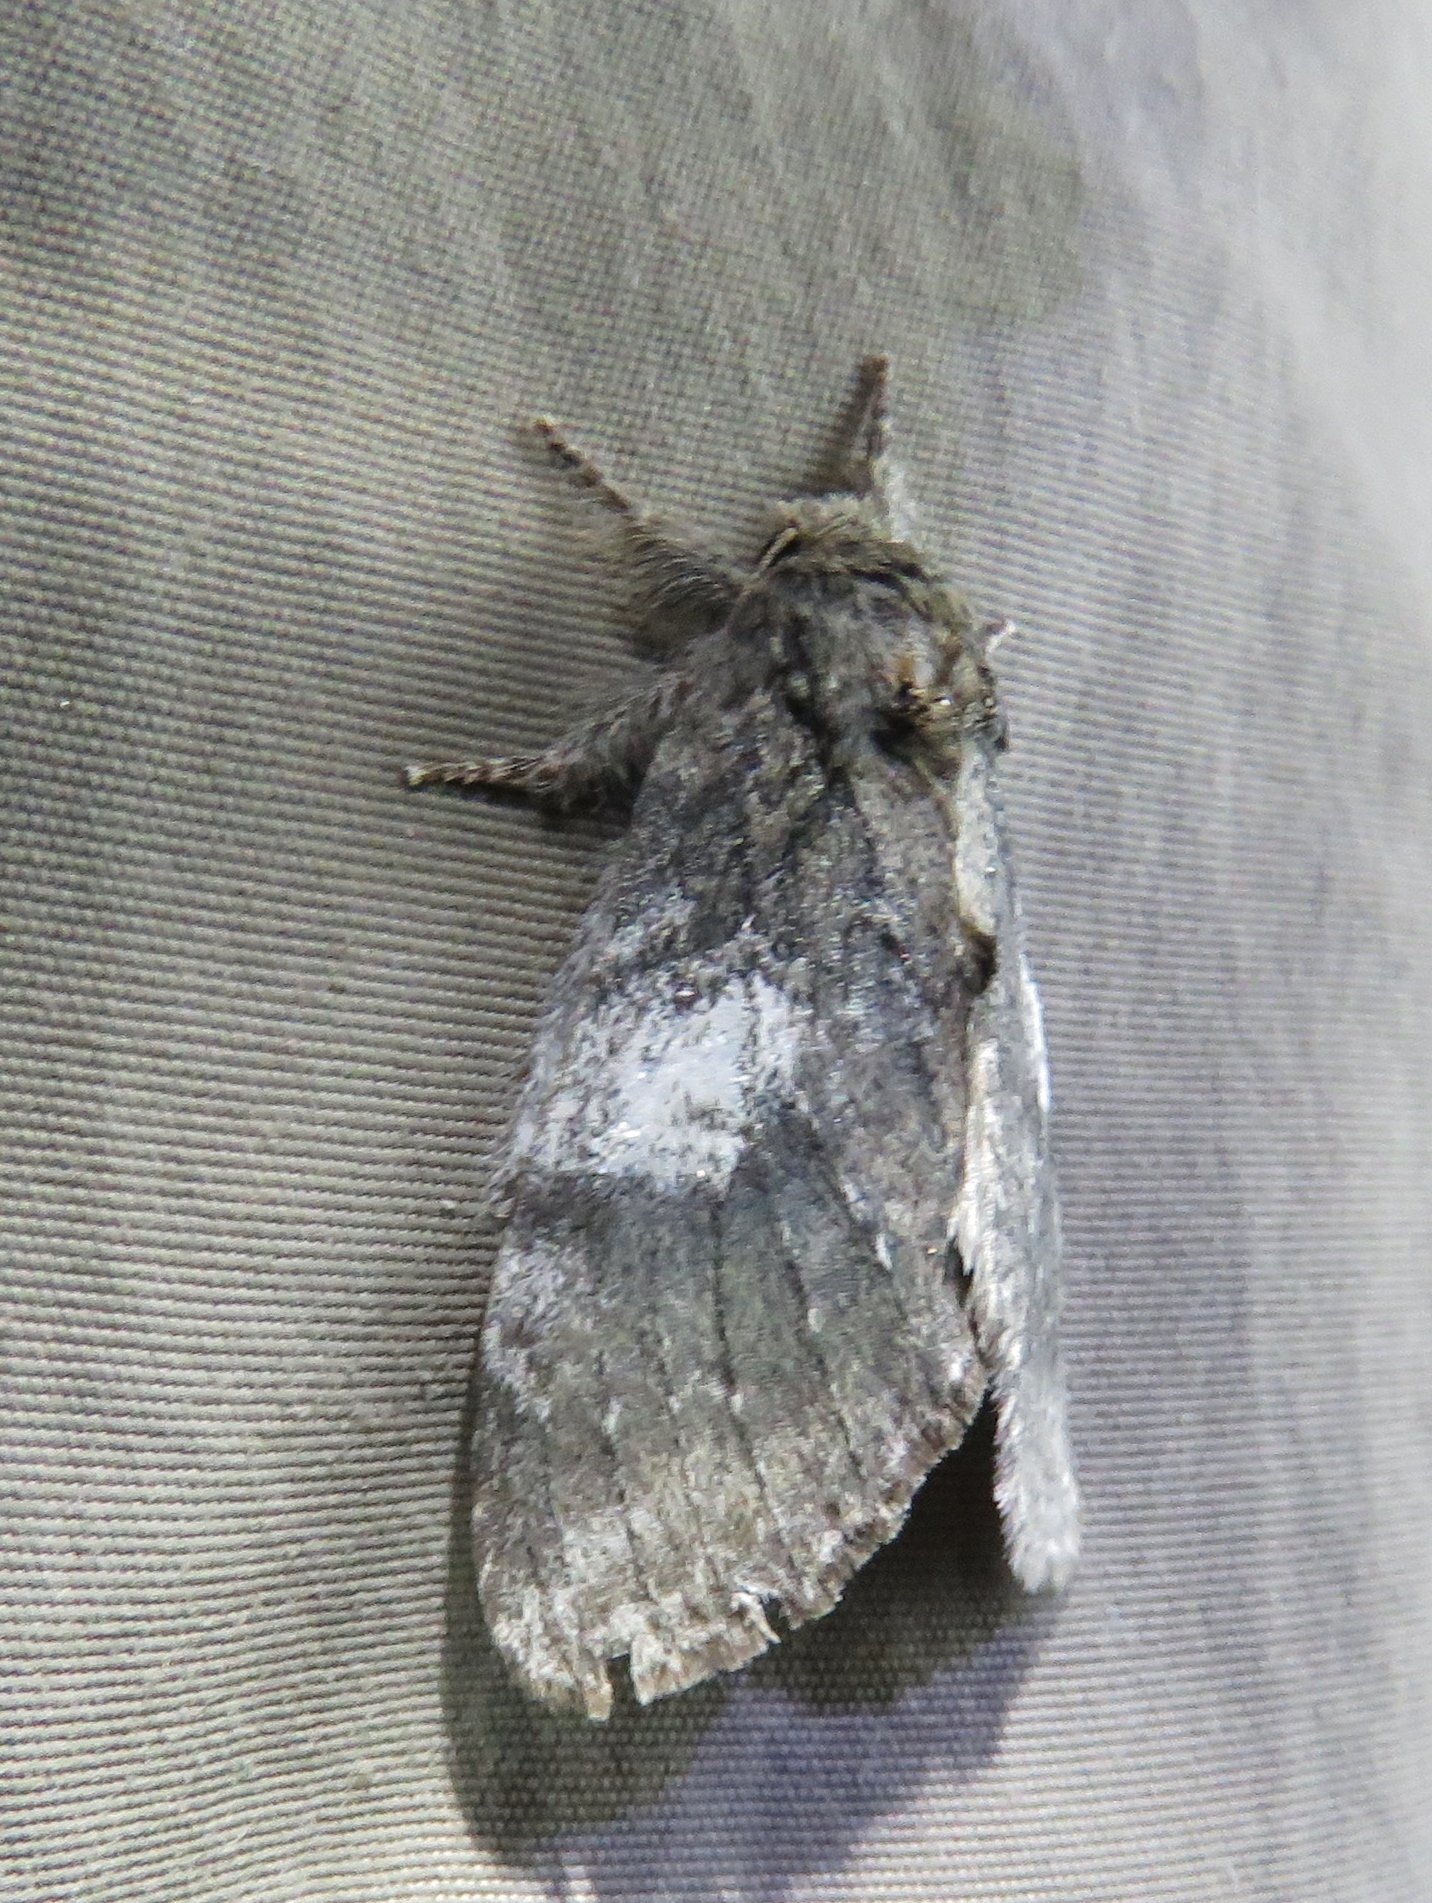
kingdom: Animalia
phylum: Arthropoda
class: Insecta
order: Lepidoptera
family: Notodontidae
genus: Peridea
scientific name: Peridea angulosa
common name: Angulose prominent
